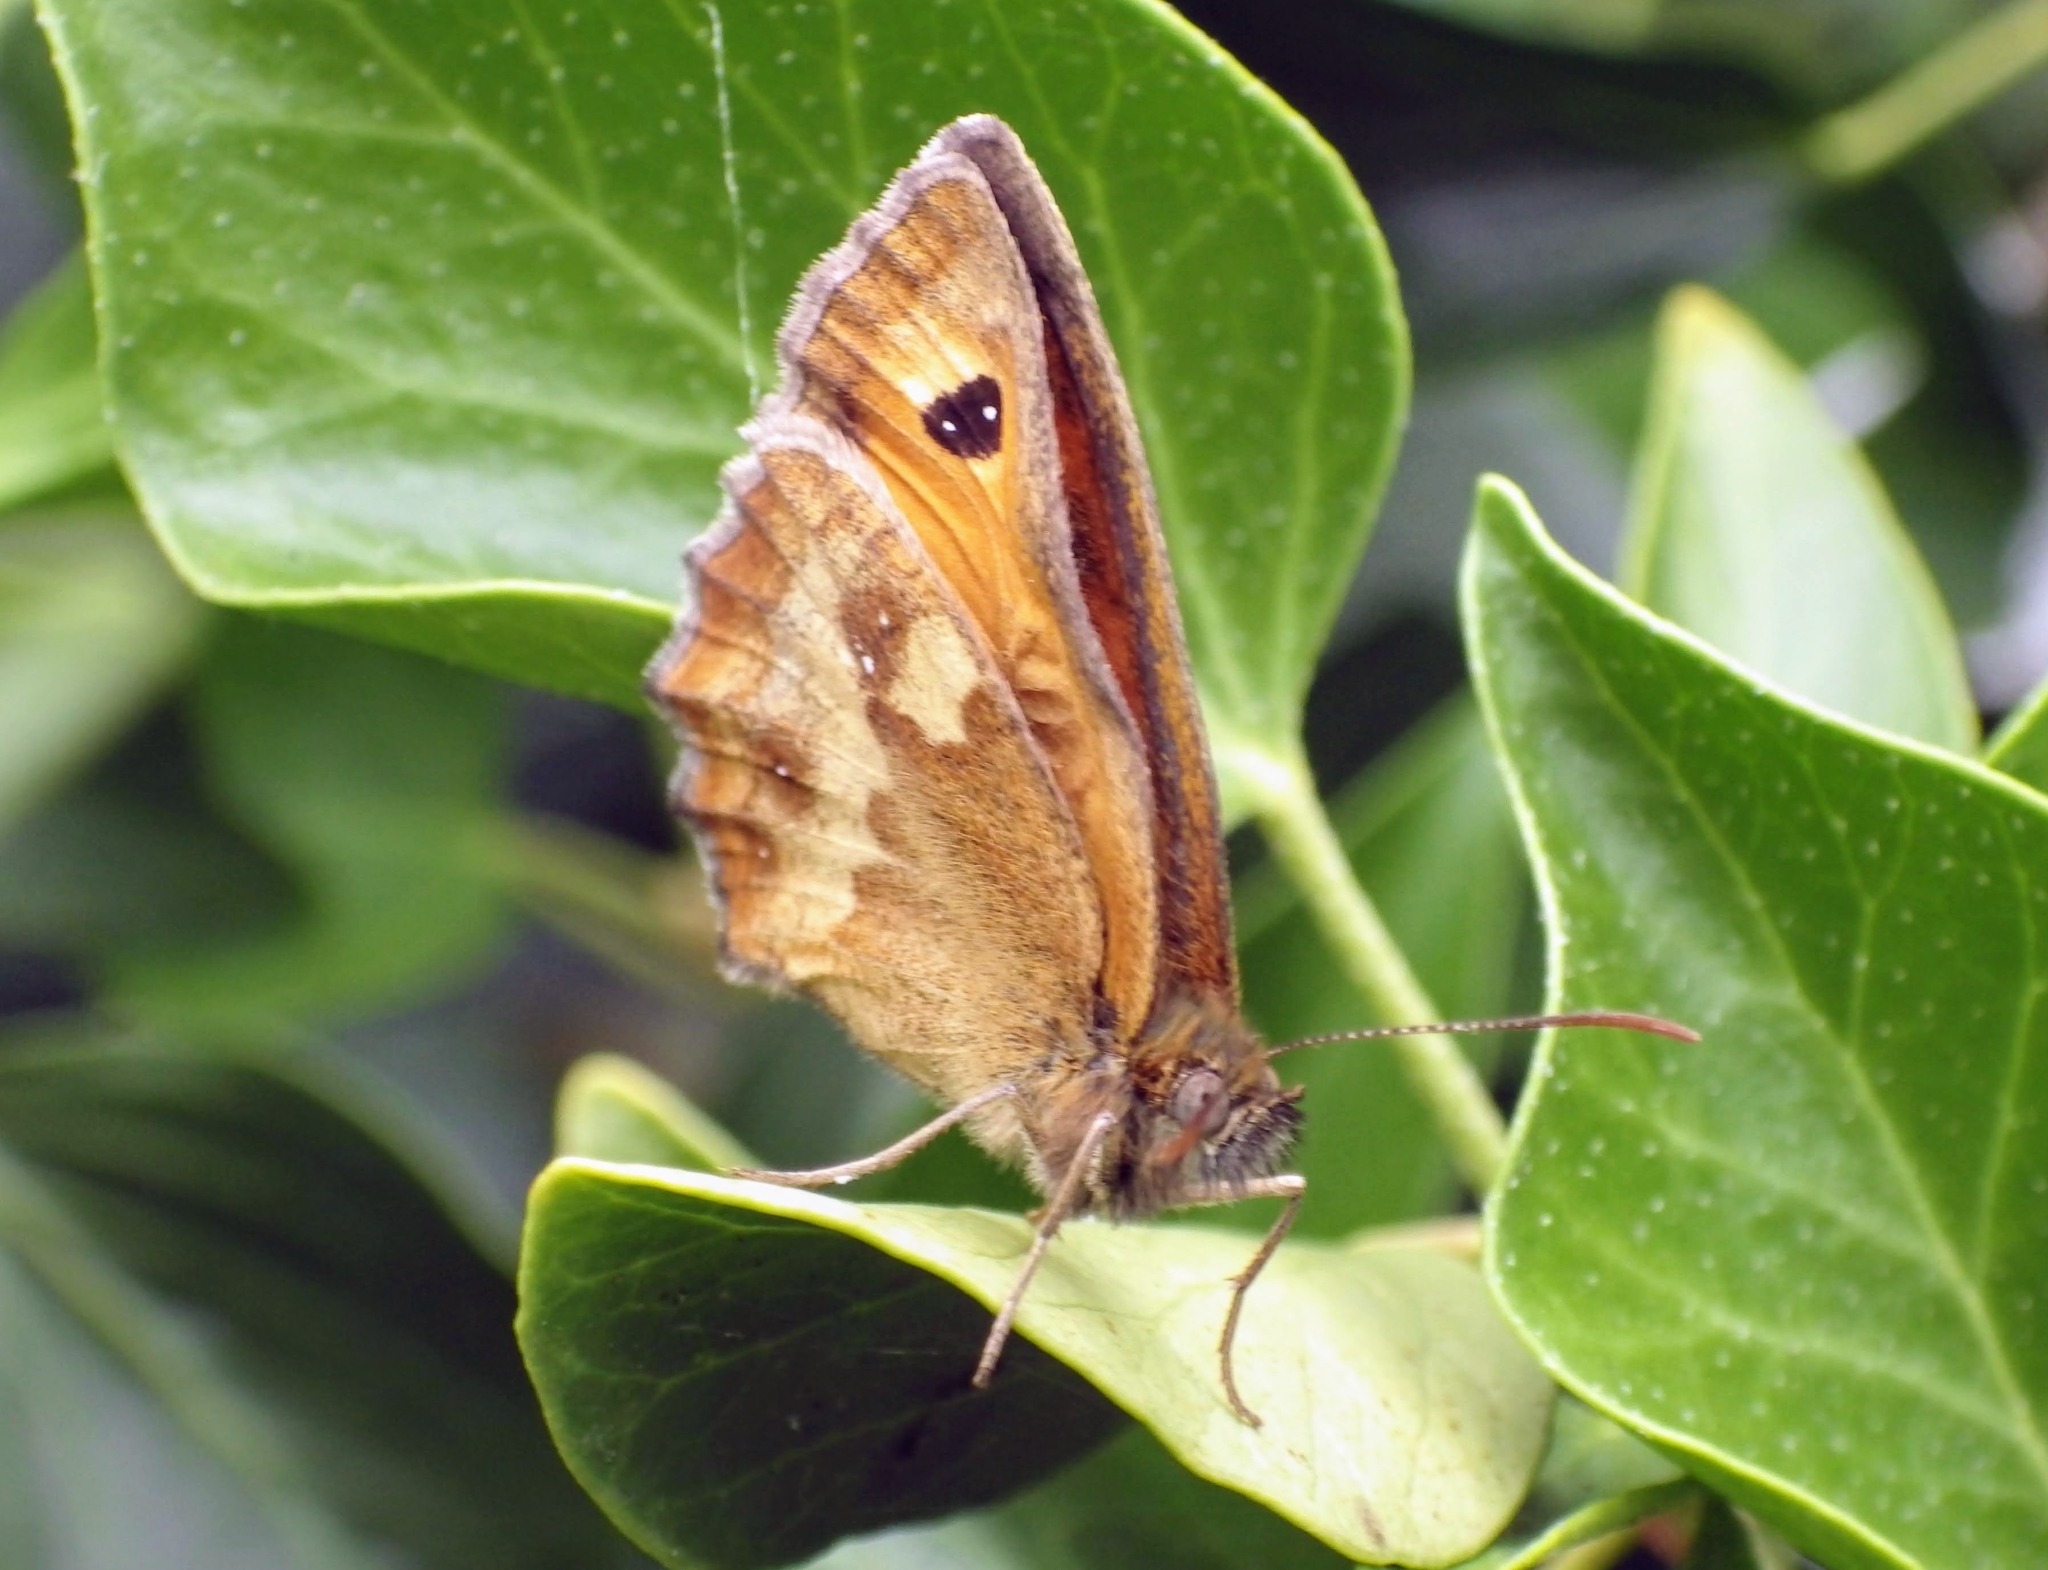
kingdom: Animalia
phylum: Arthropoda
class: Insecta
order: Lepidoptera
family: Nymphalidae
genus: Pyronia
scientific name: Pyronia tithonus
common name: Gatekeeper
